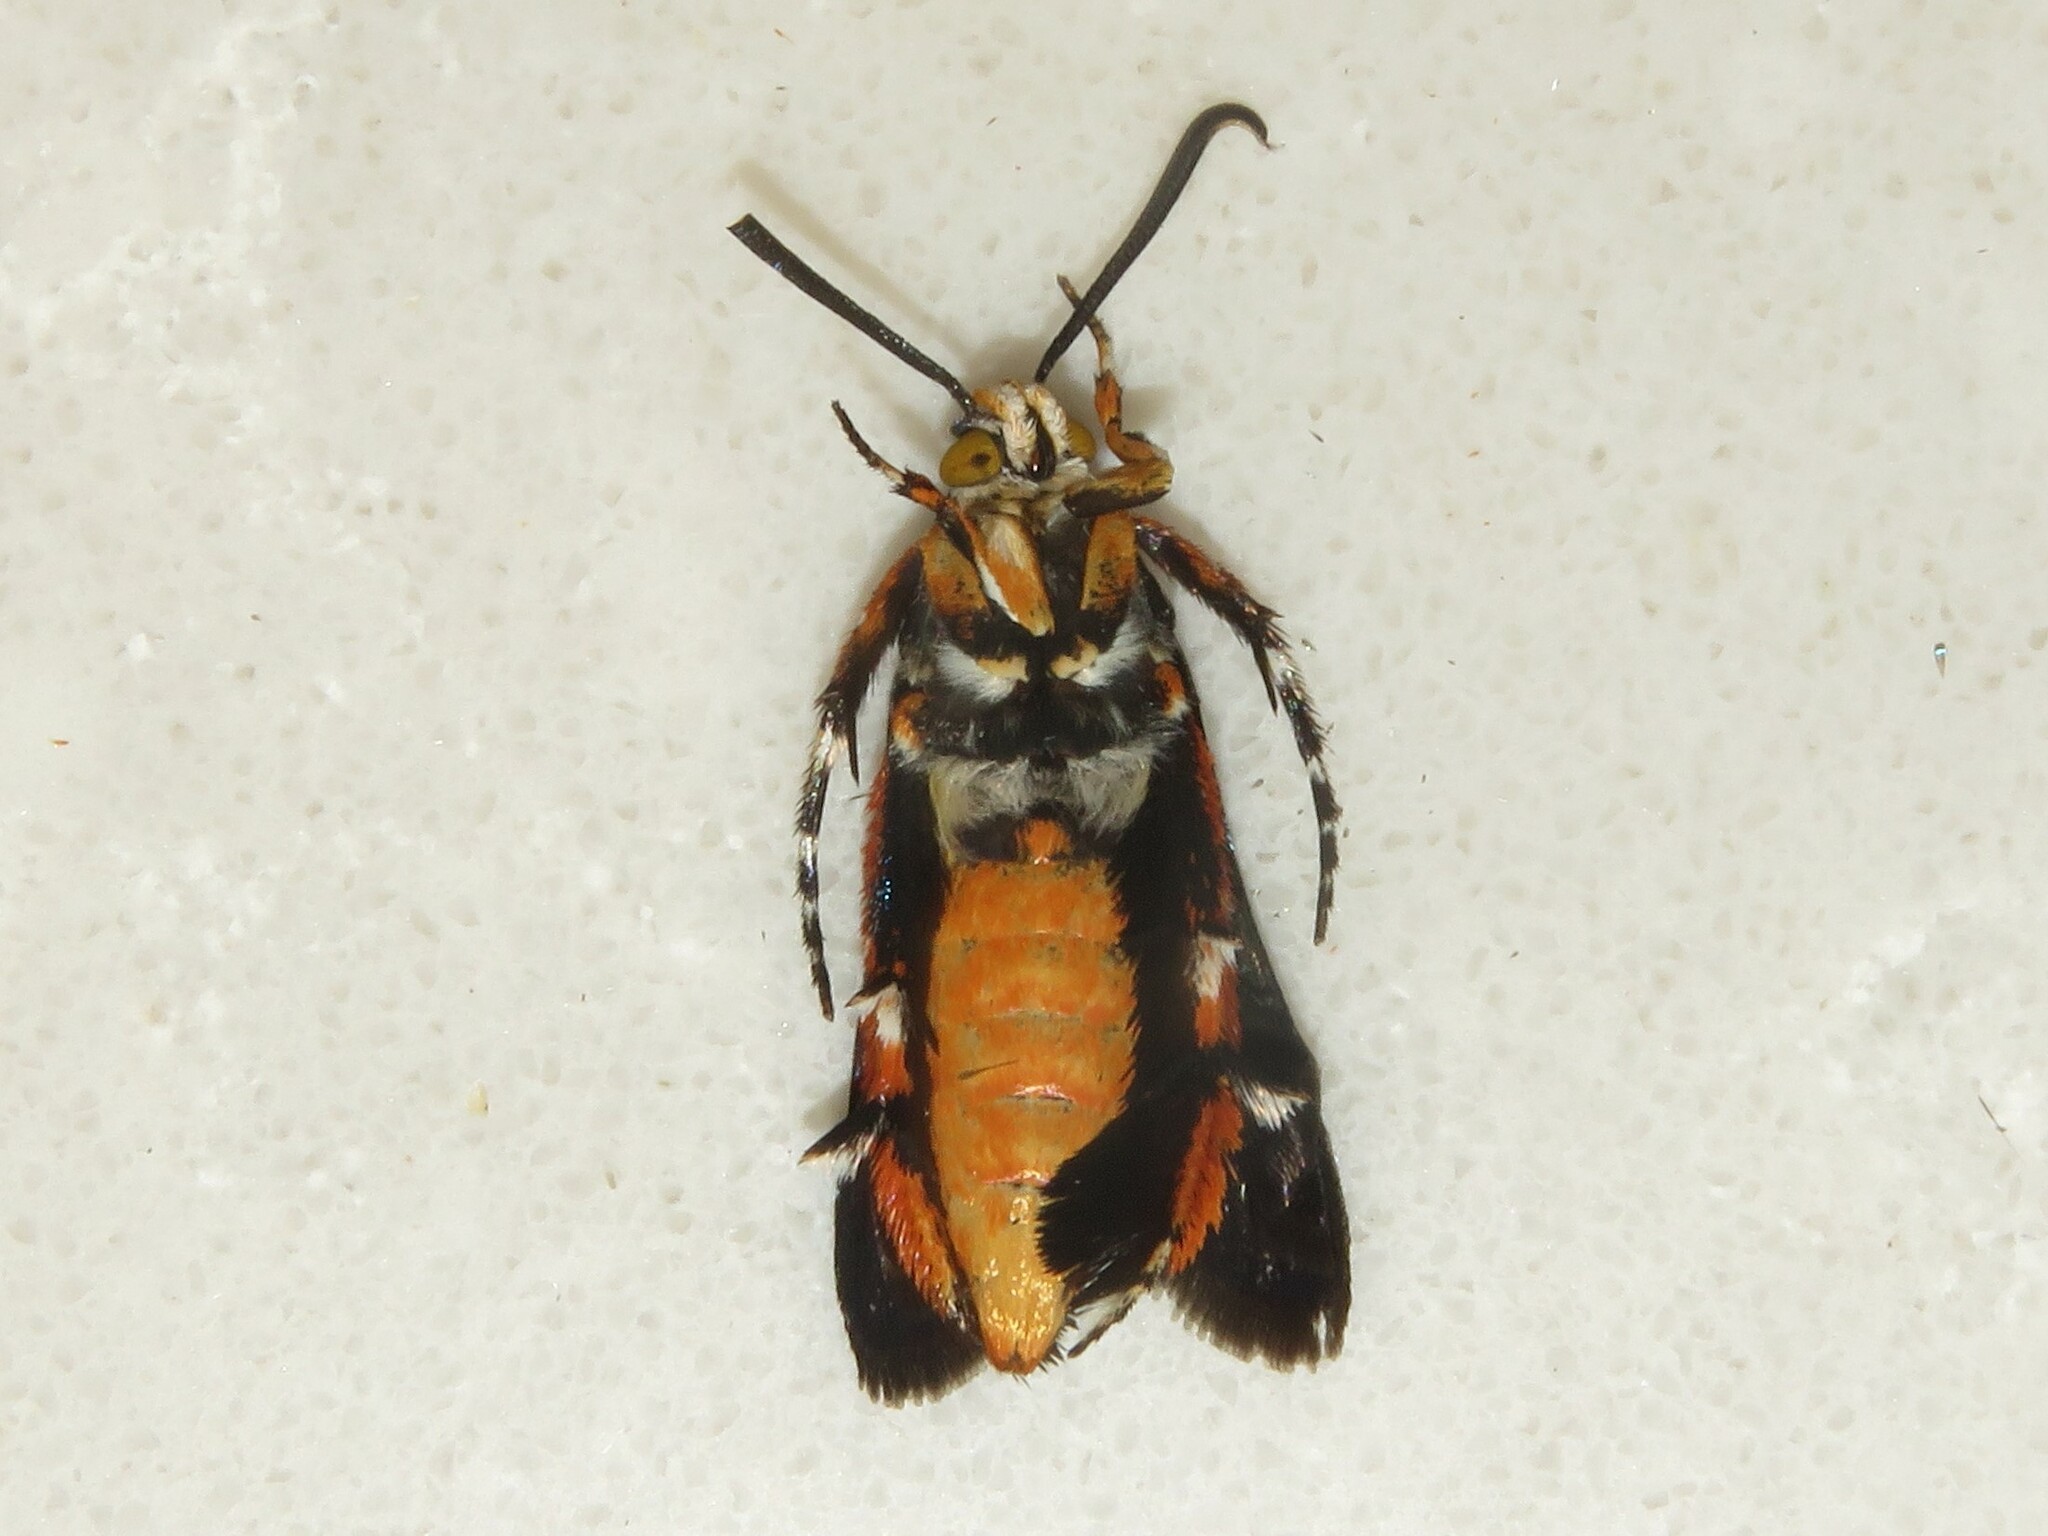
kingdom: Animalia
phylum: Arthropoda
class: Insecta
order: Lepidoptera
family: Sesiidae
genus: Eichlinia
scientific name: Eichlinia cucurbitae
